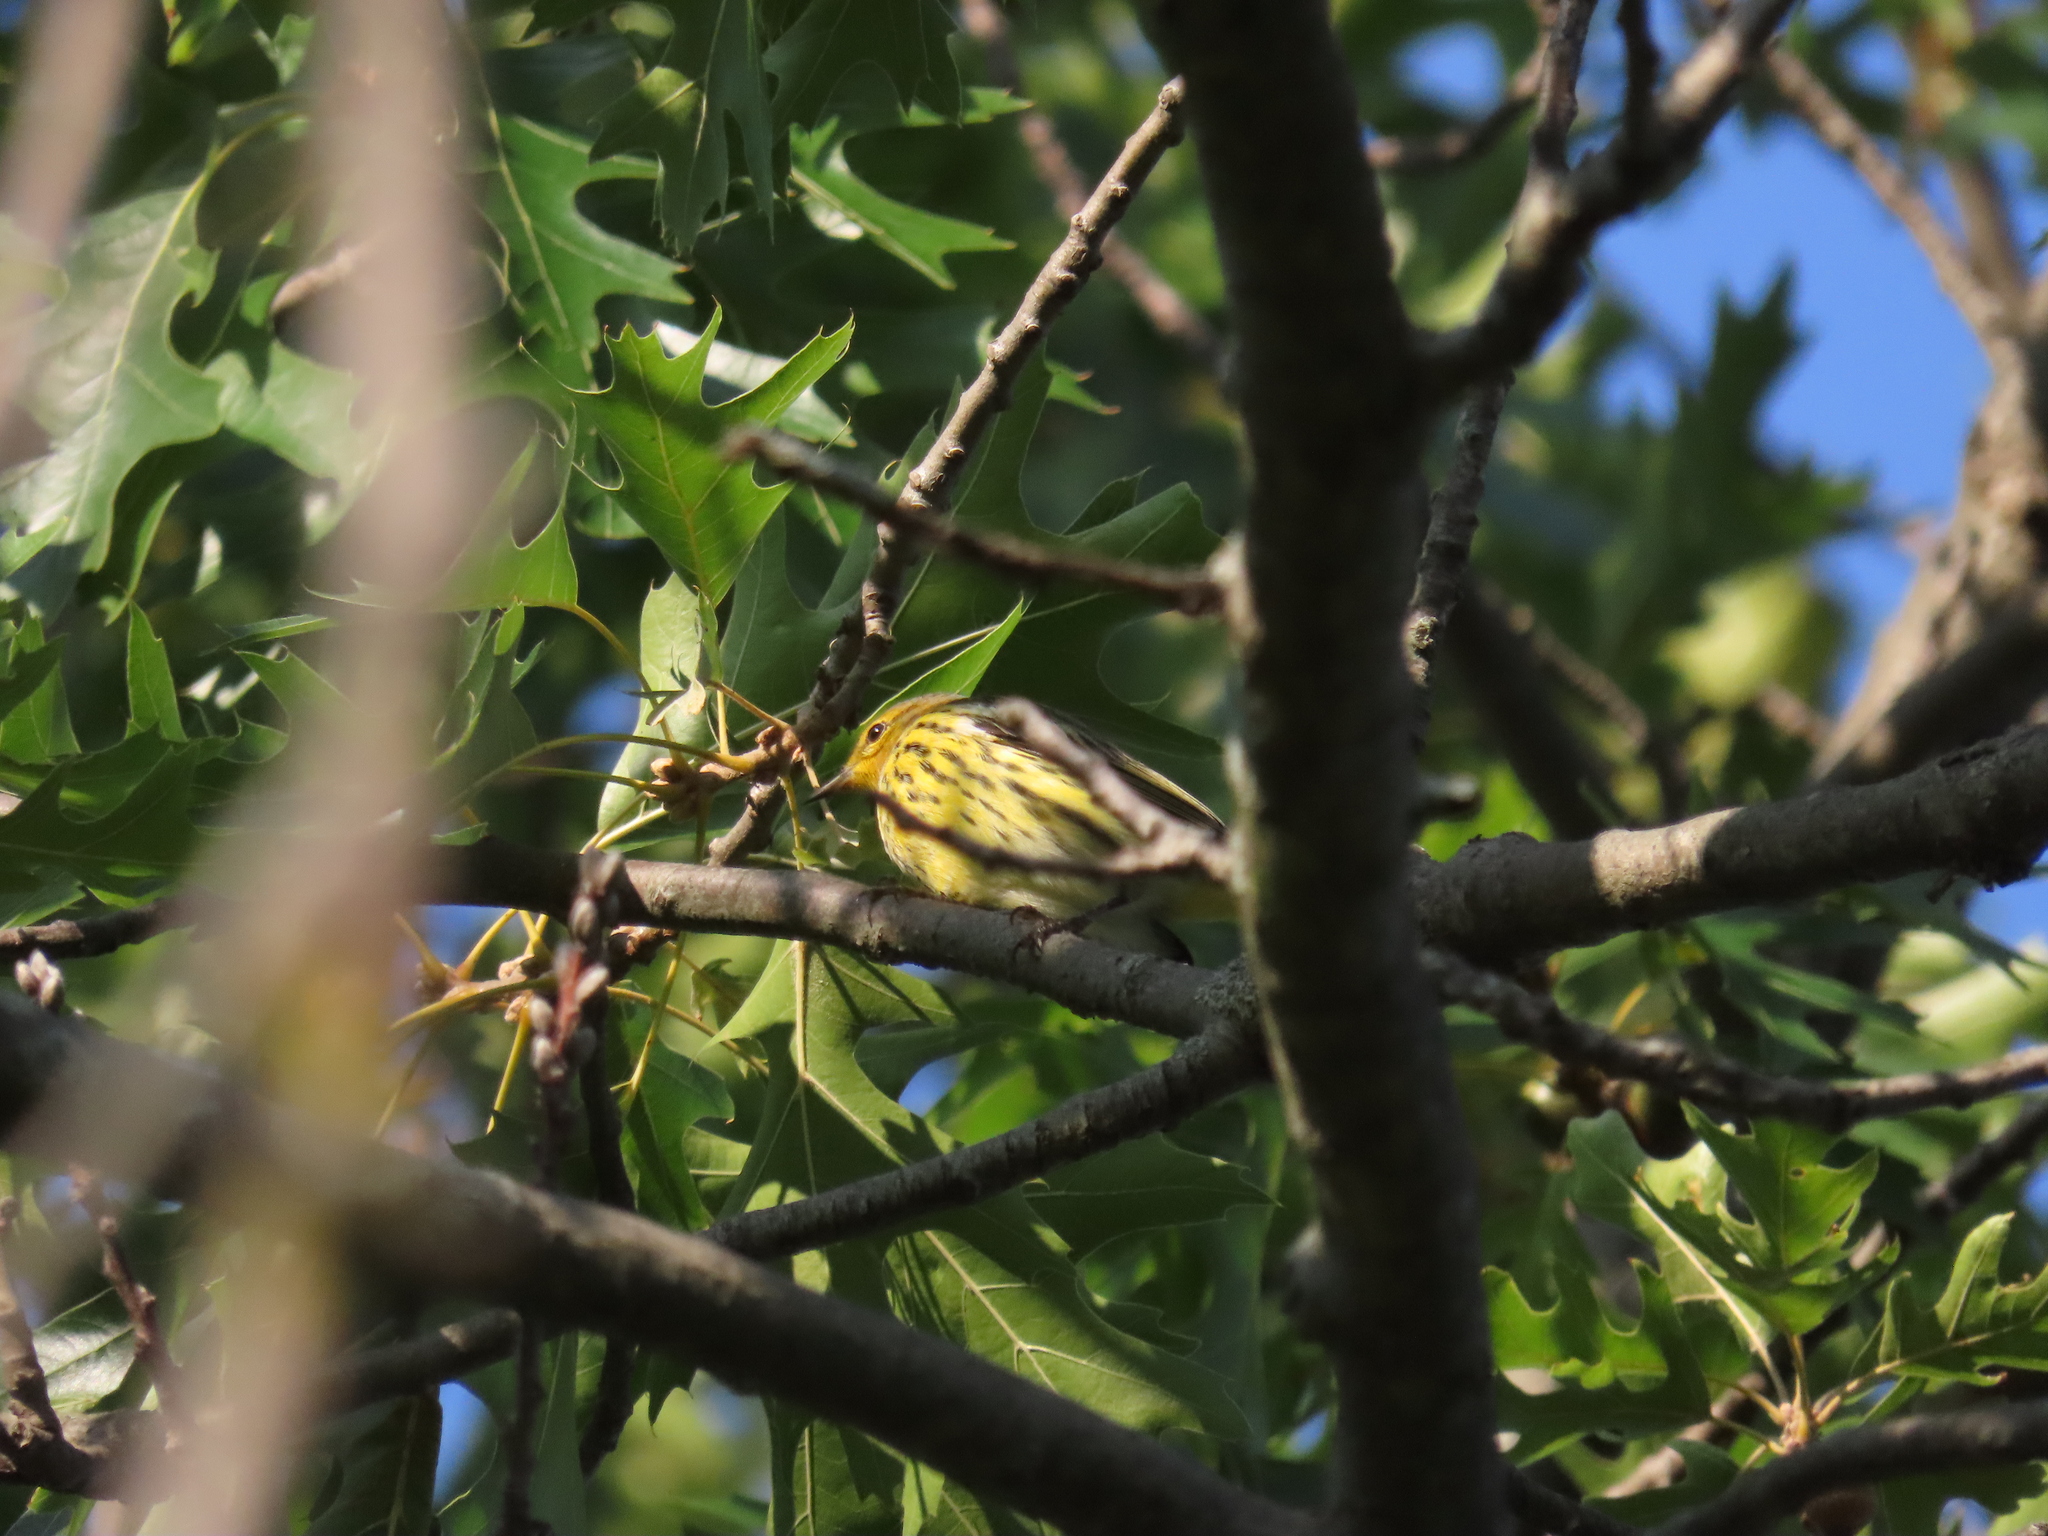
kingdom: Animalia
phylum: Chordata
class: Aves
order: Passeriformes
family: Parulidae
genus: Setophaga
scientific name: Setophaga tigrina
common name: Cape may warbler
